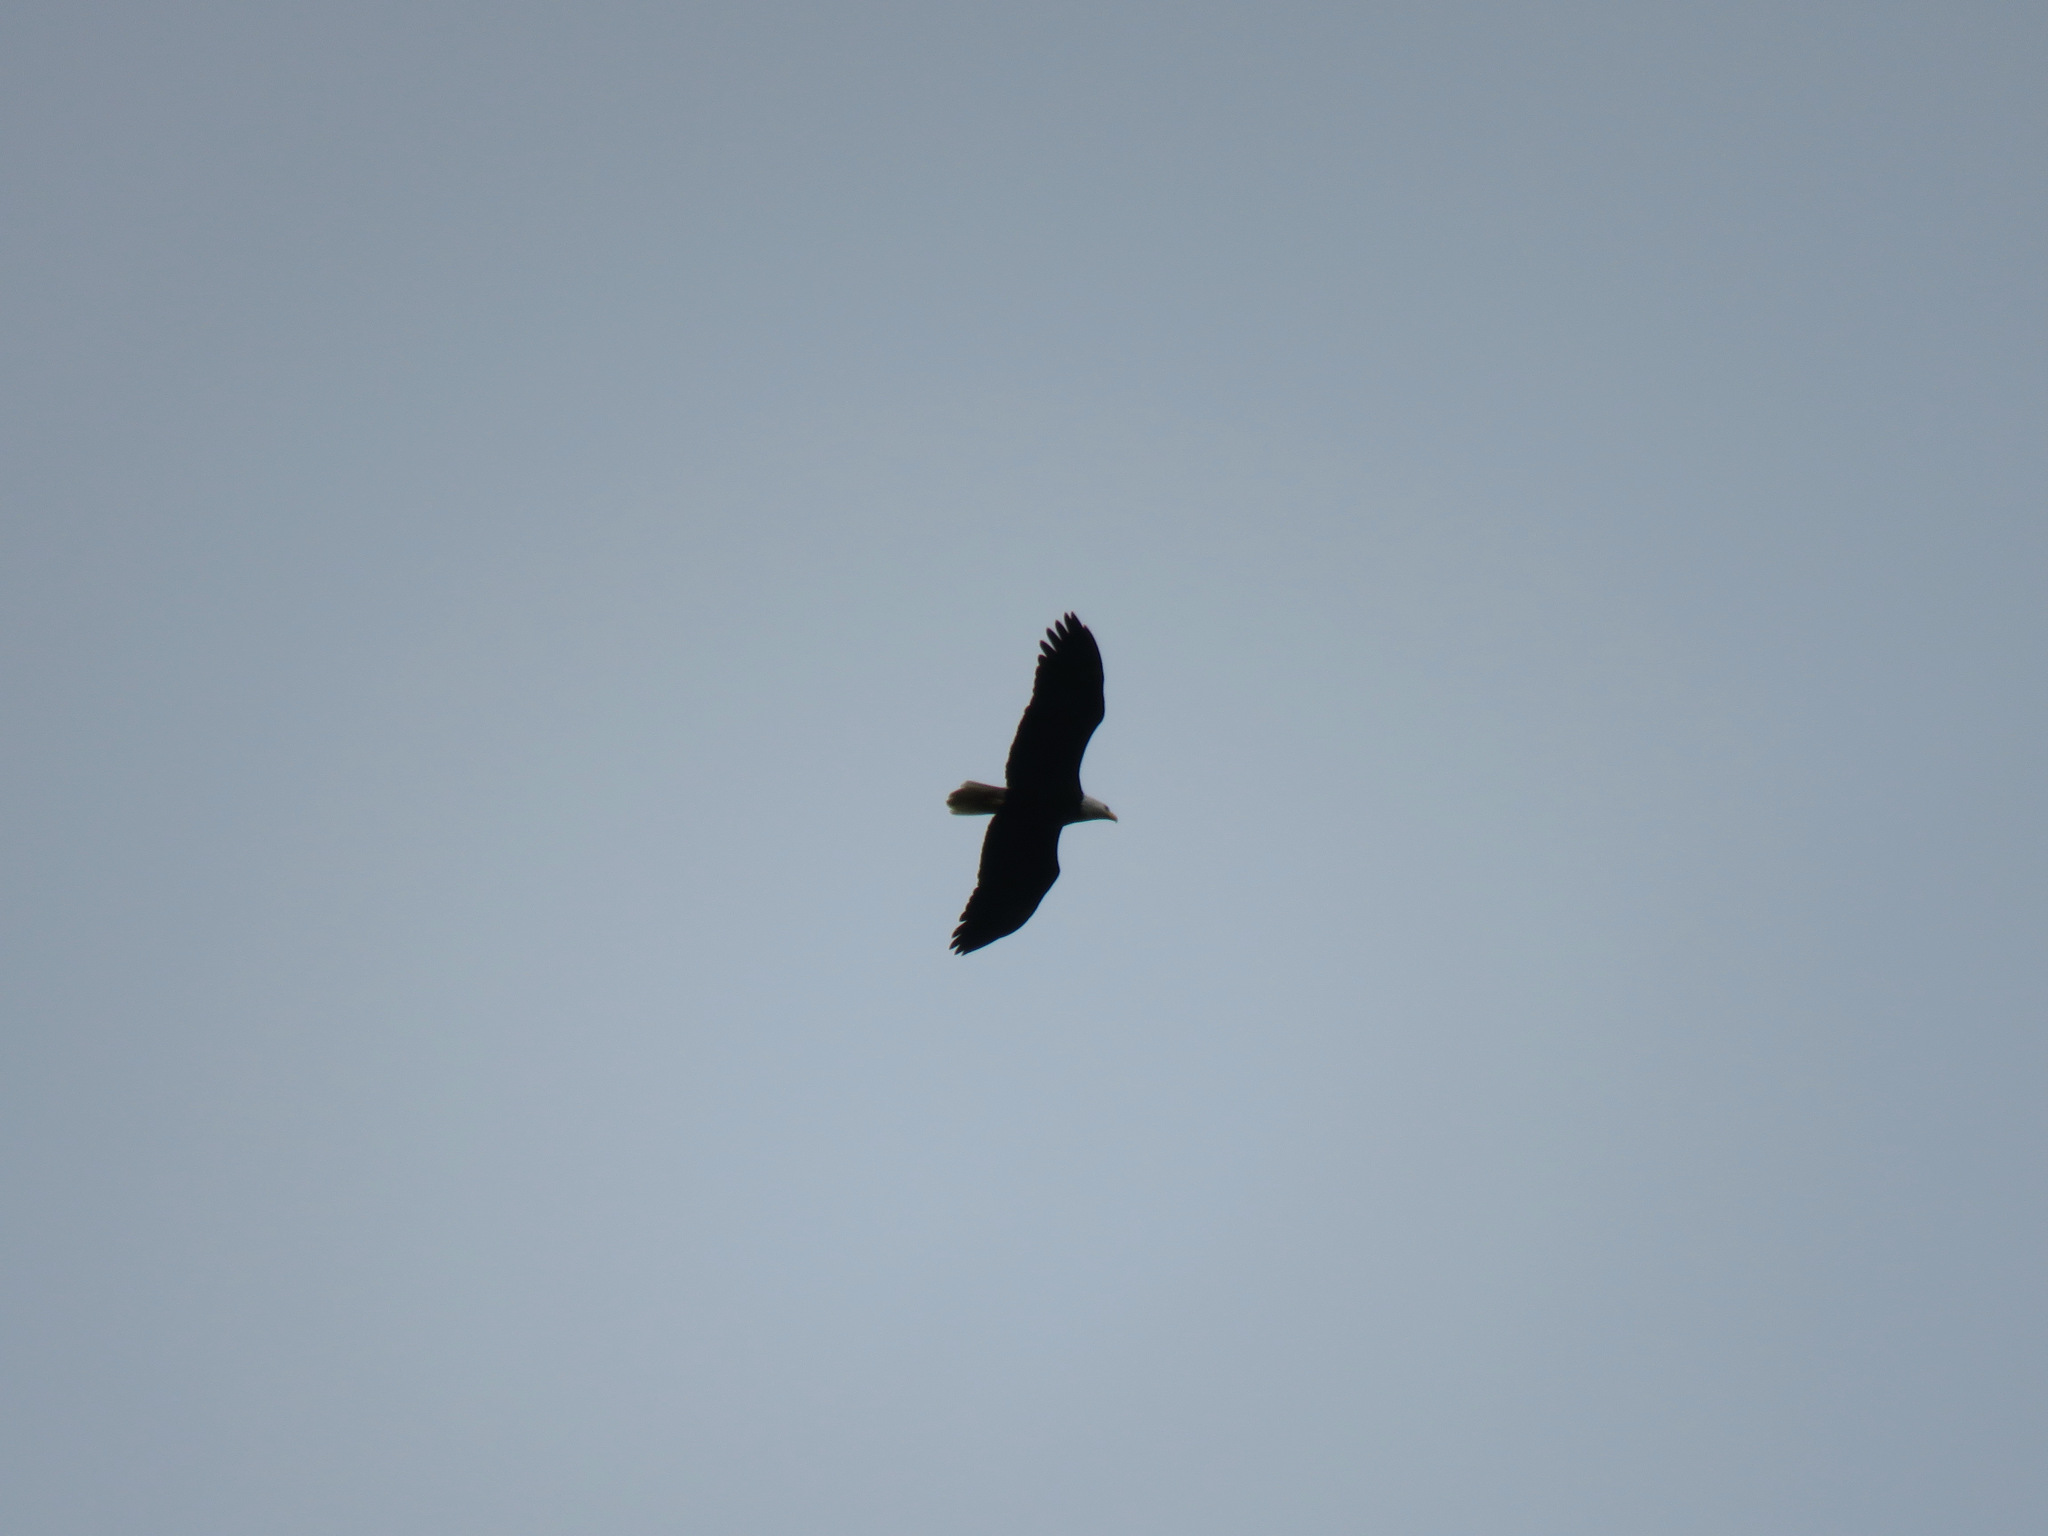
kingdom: Animalia
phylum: Chordata
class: Aves
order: Accipitriformes
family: Accipitridae
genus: Haliaeetus
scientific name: Haliaeetus leucocephalus
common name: Bald eagle
